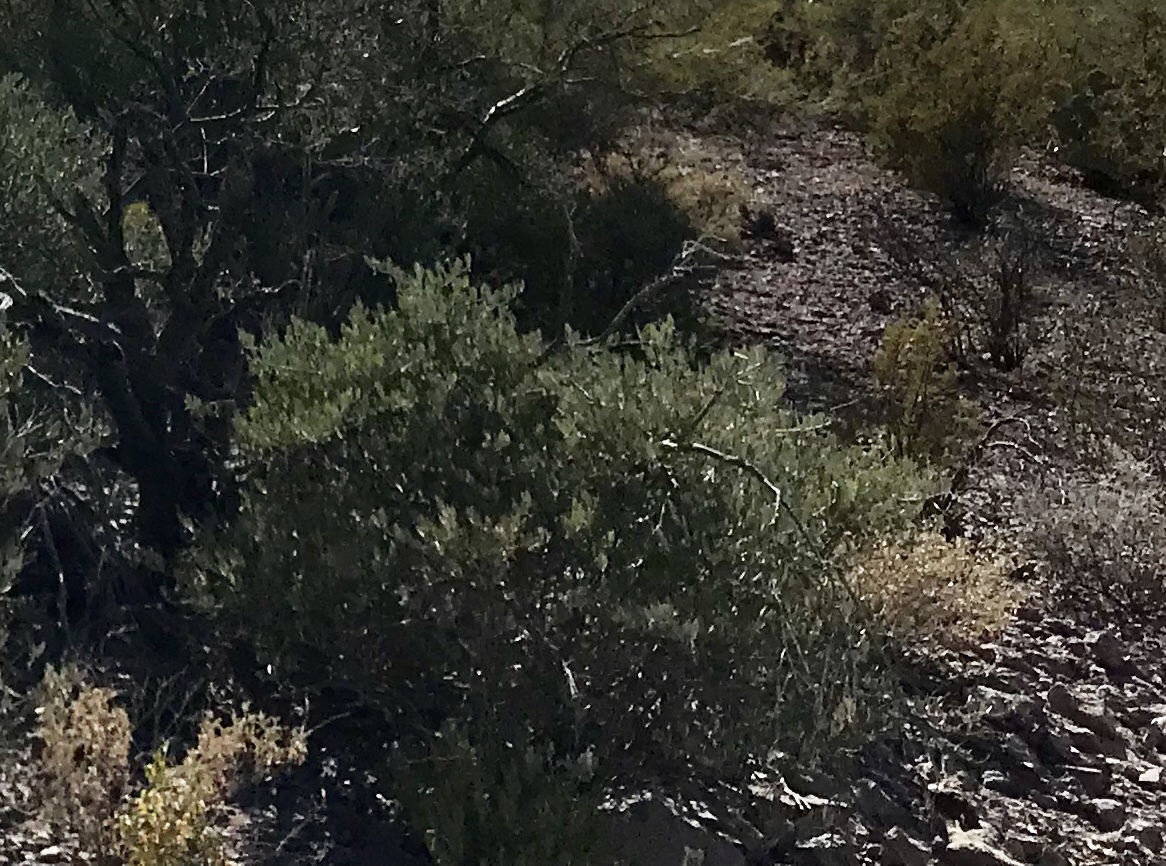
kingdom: Plantae
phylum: Tracheophyta
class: Magnoliopsida
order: Caryophyllales
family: Simmondsiaceae
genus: Simmondsia
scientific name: Simmondsia chinensis
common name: Jojoba
